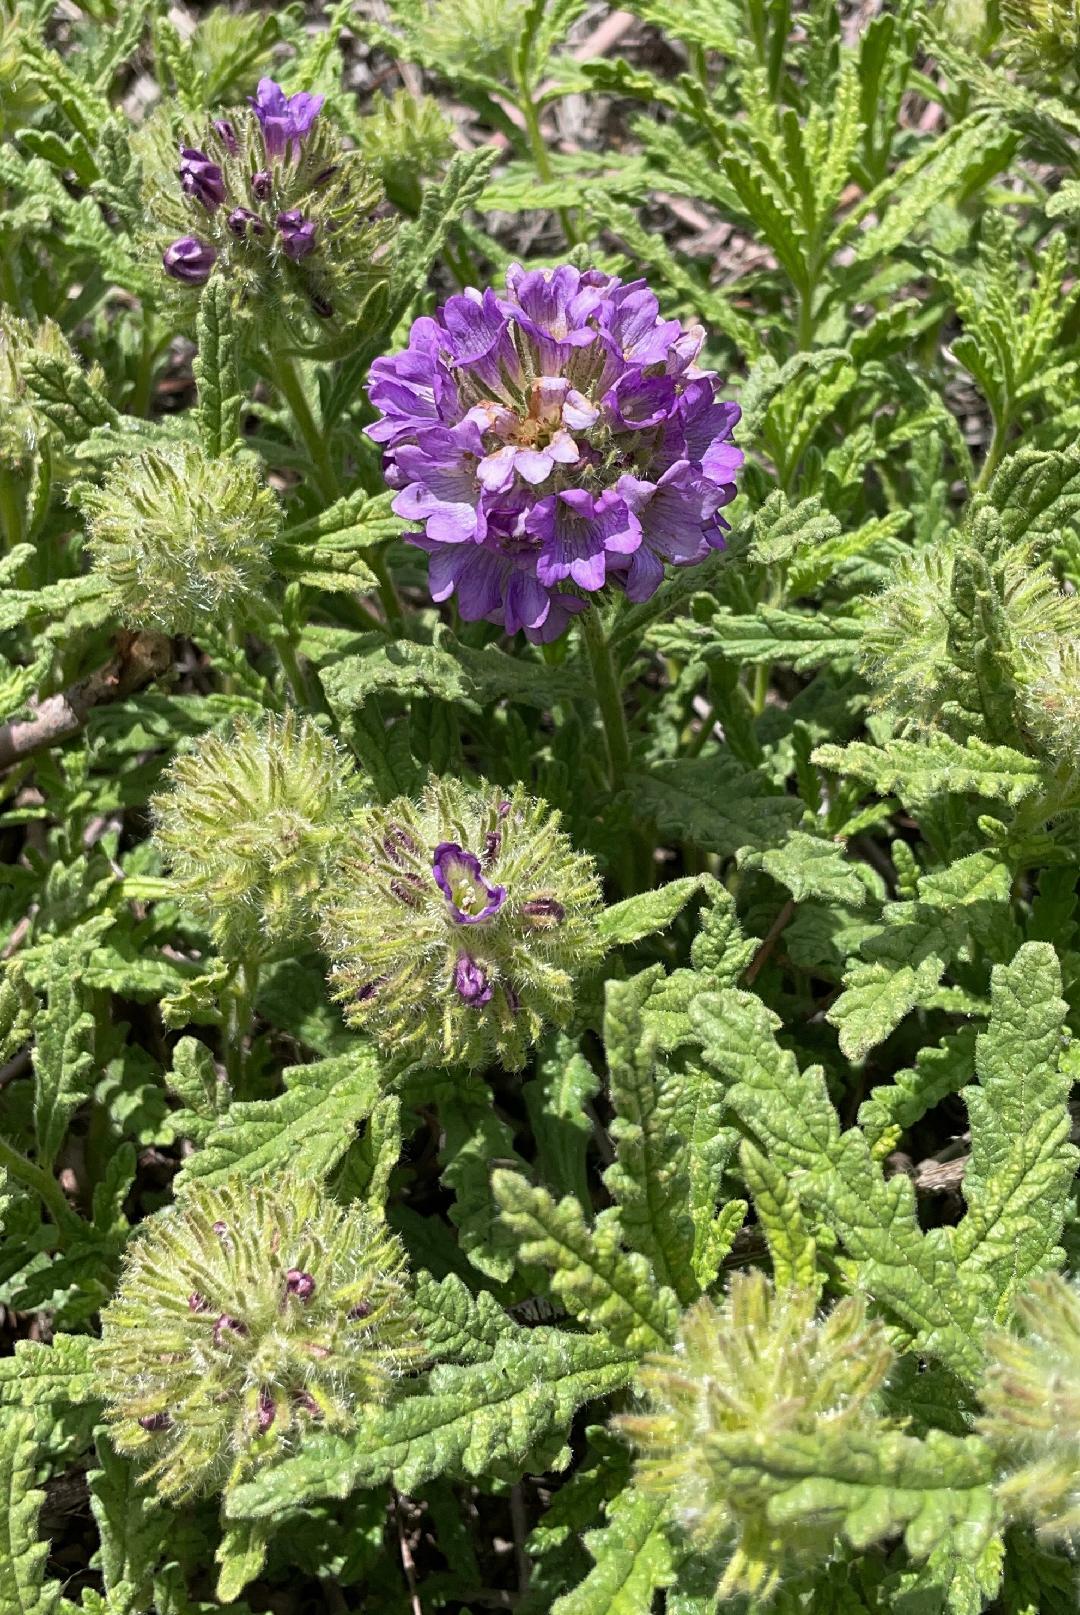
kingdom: Plantae
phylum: Tracheophyta
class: Magnoliopsida
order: Boraginales
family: Namaceae
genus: Nama
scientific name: Nama rothrockii
